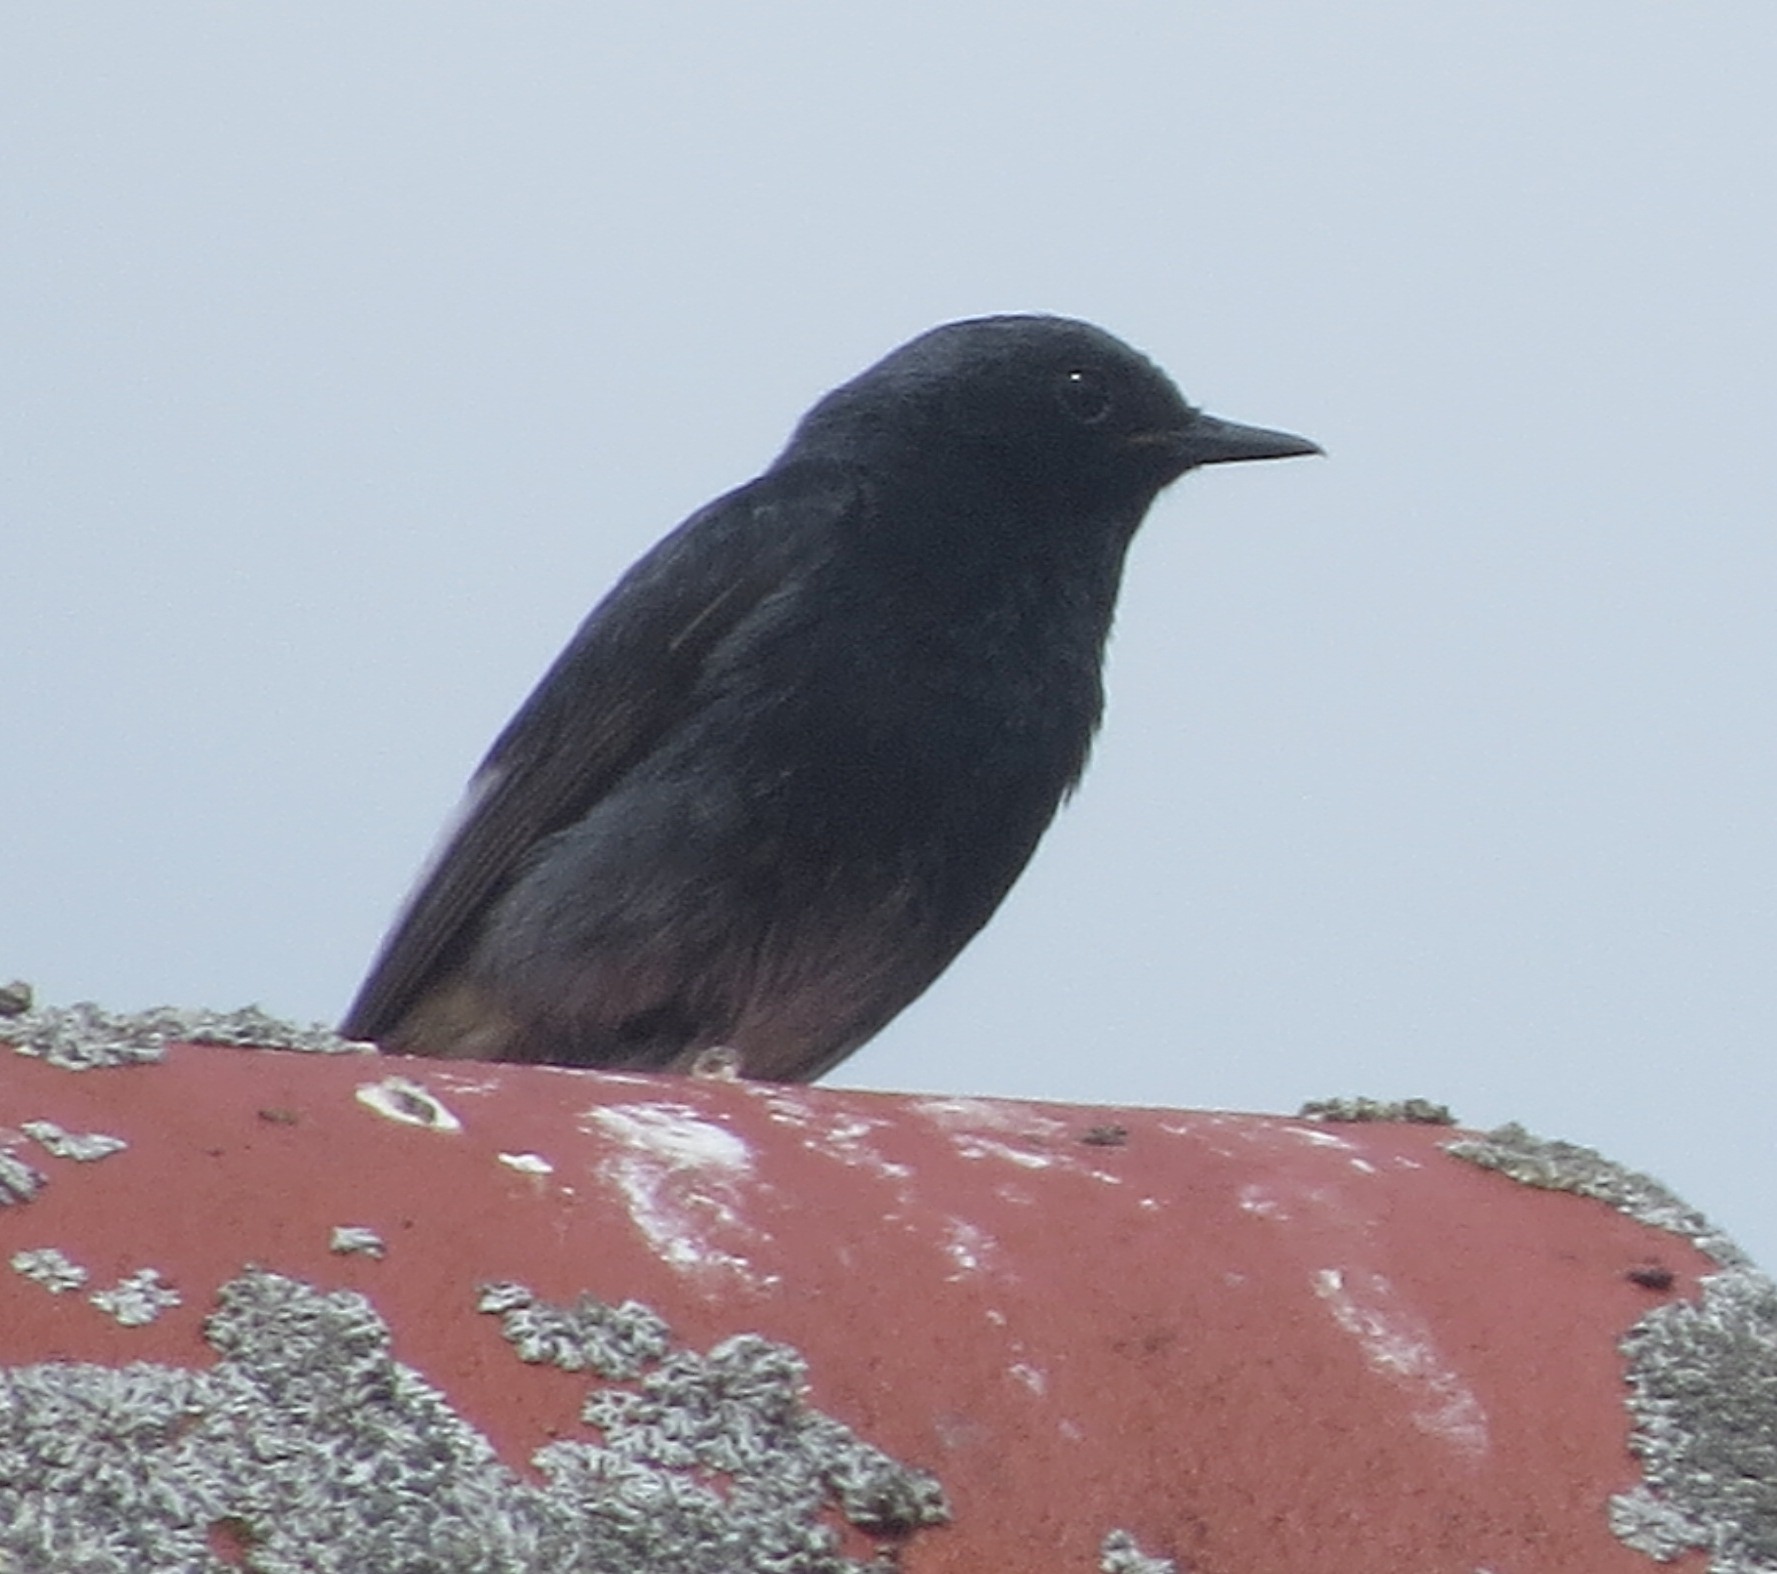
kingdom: Animalia
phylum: Chordata
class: Aves
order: Passeriformes
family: Muscicapidae
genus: Phoenicurus
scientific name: Phoenicurus ochruros
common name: Black redstart
